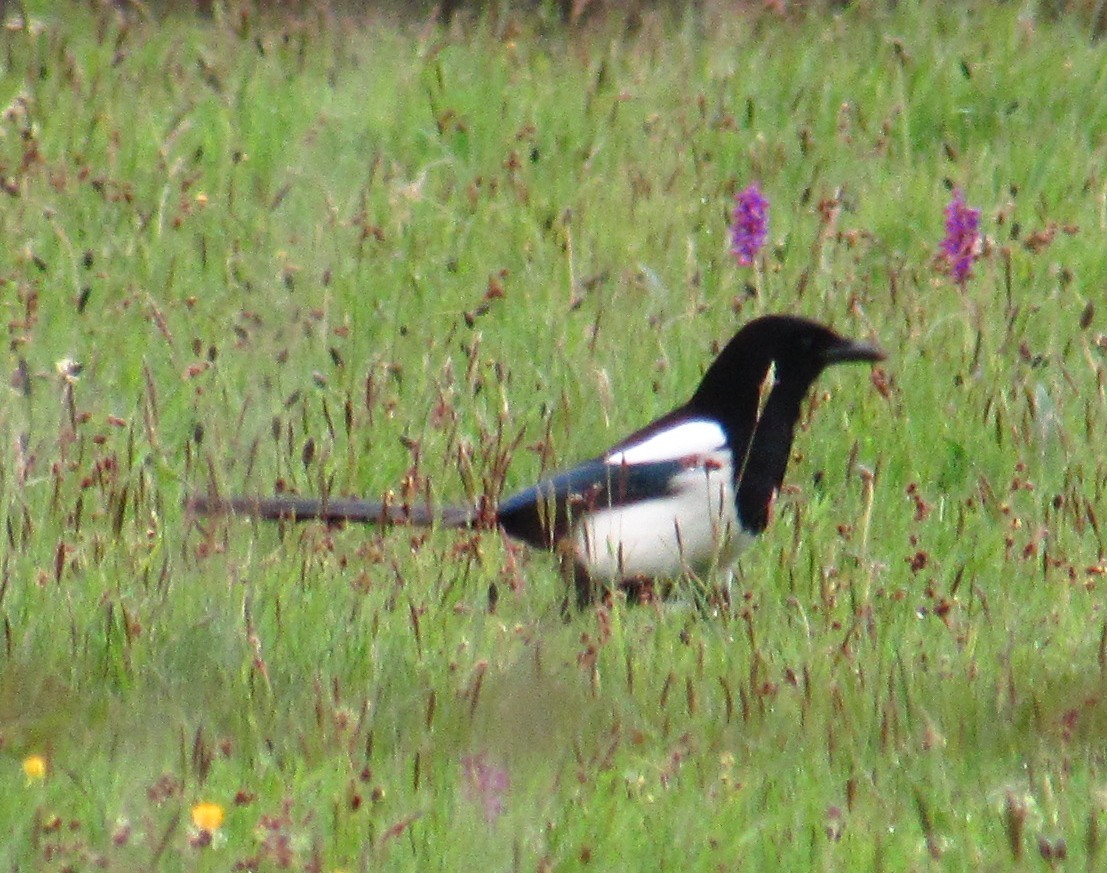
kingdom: Animalia
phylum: Chordata
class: Aves
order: Passeriformes
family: Corvidae
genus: Pica
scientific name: Pica pica
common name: Eurasian magpie
